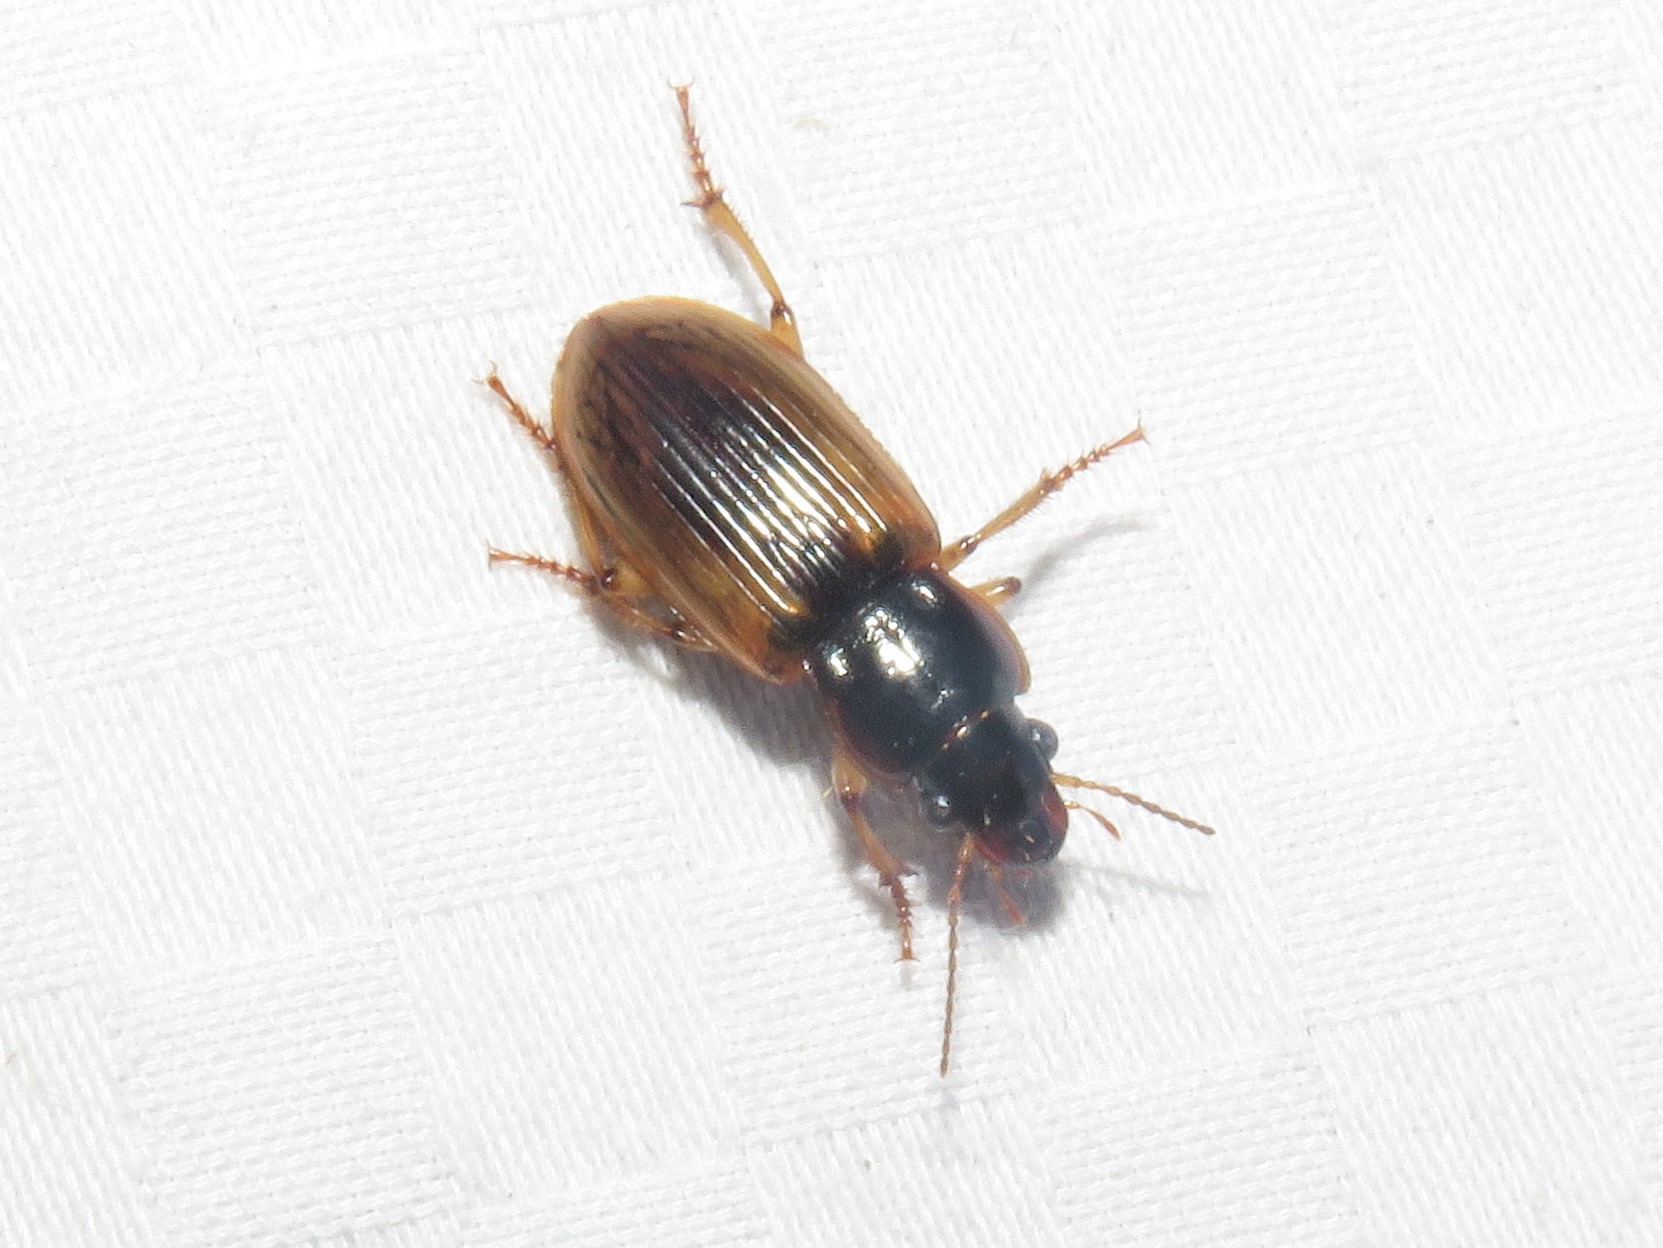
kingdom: Animalia
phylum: Arthropoda
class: Insecta
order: Coleoptera
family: Carabidae
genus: Anisodactylus
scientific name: Anisodactylus discoideus
